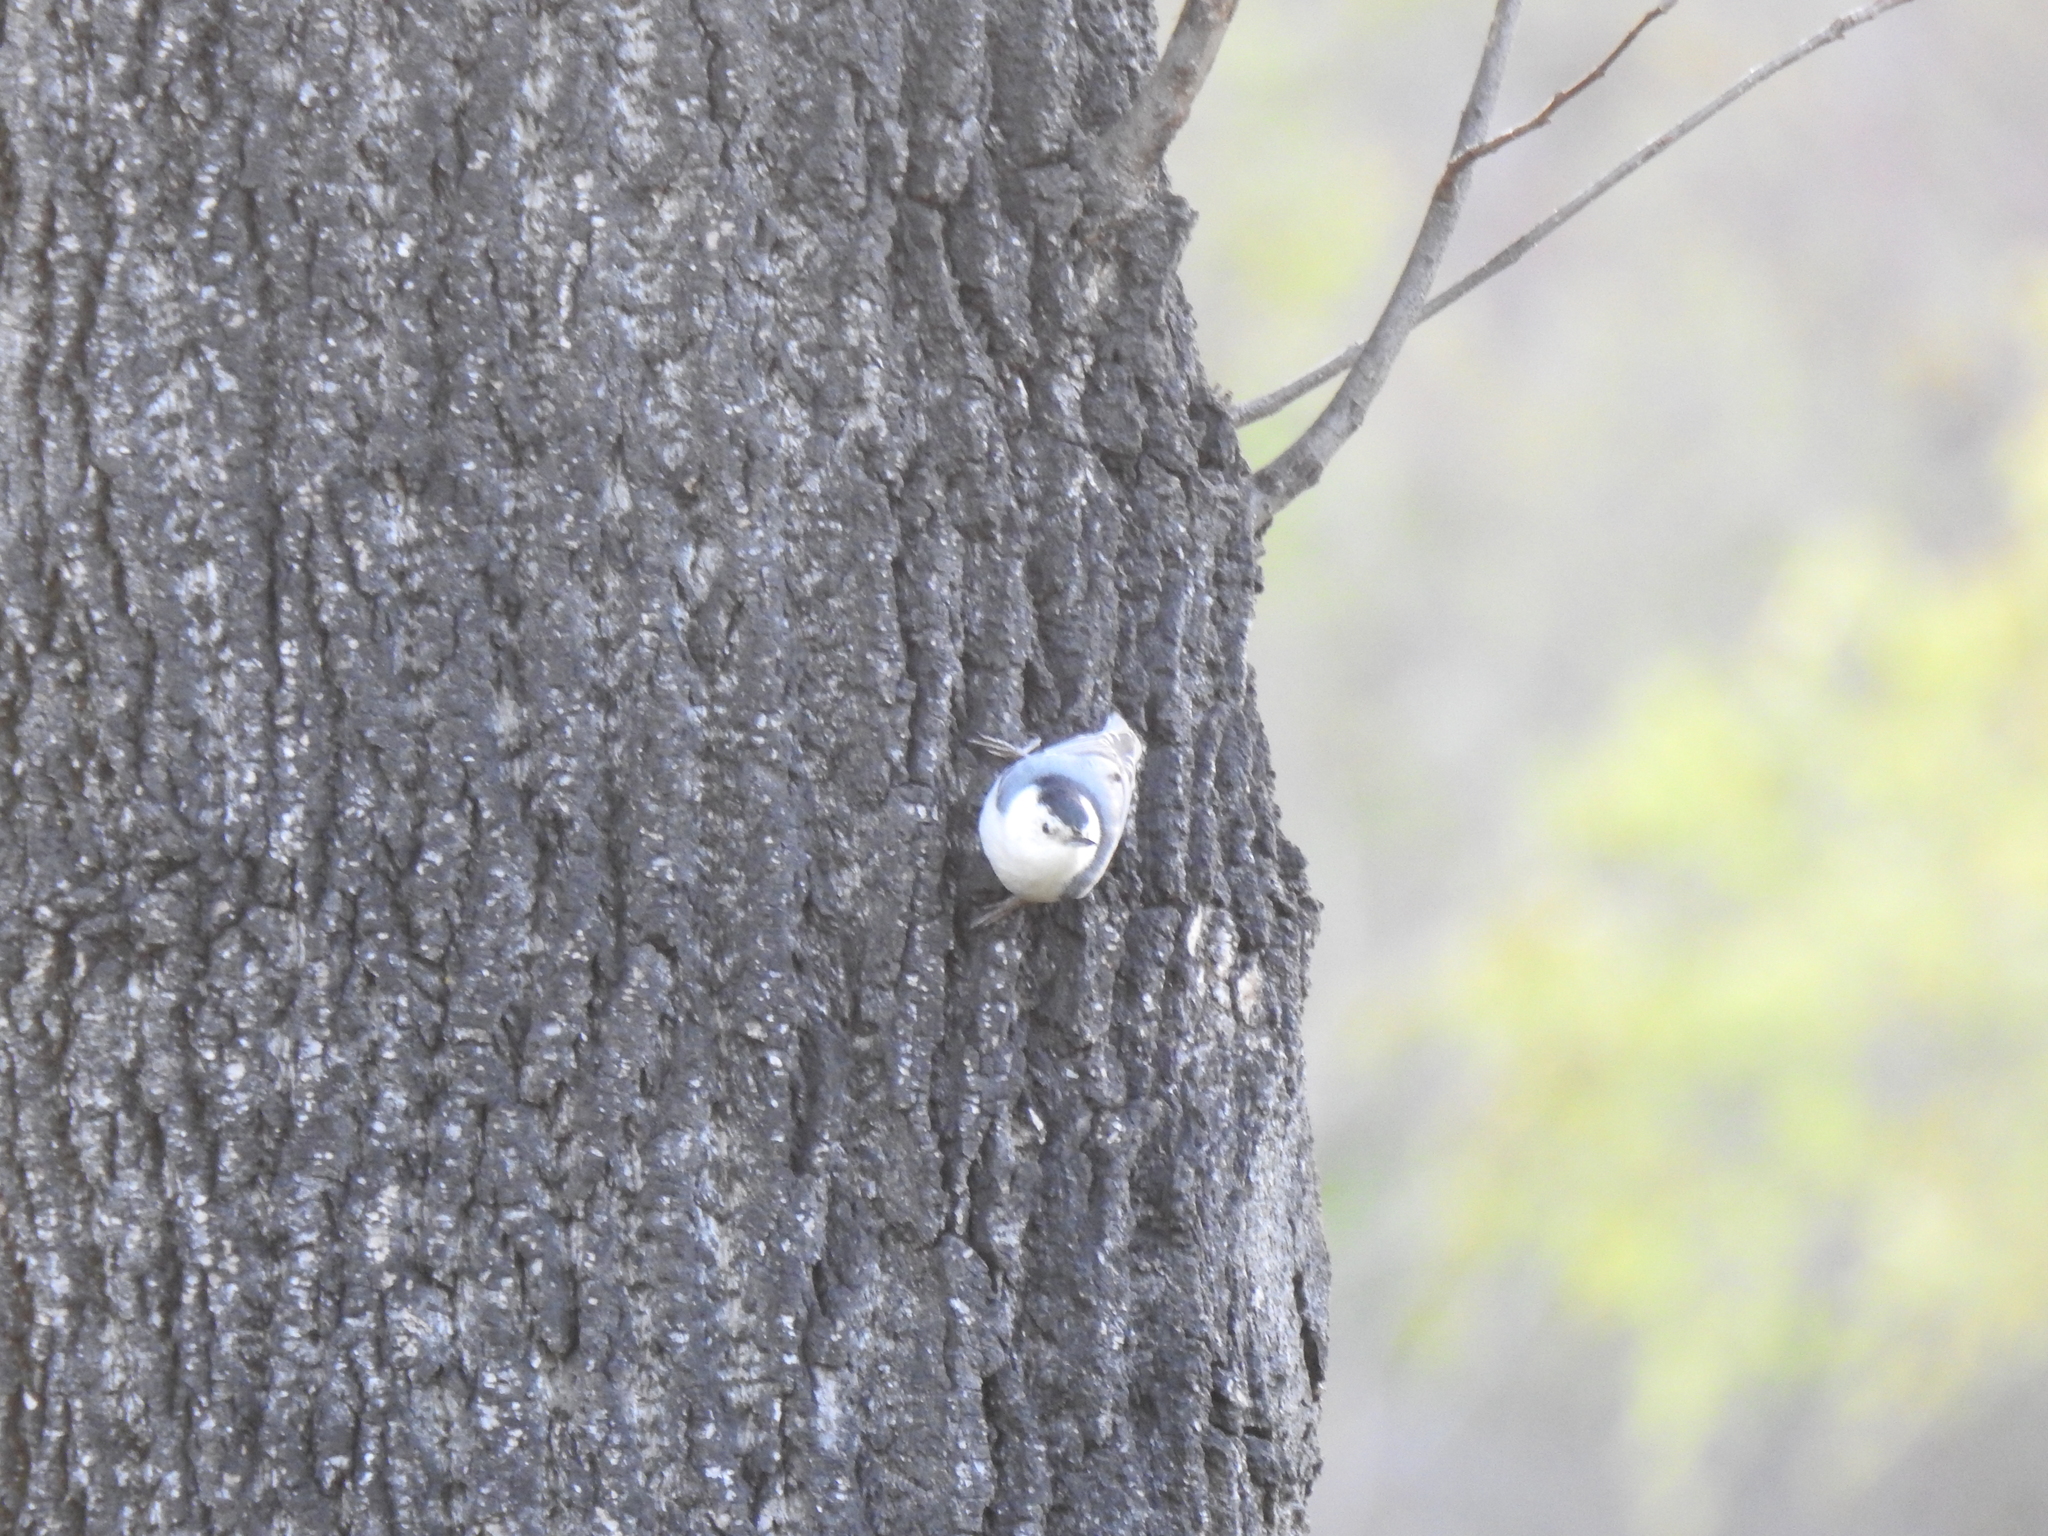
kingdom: Animalia
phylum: Chordata
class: Aves
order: Passeriformes
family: Sittidae
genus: Sitta
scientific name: Sitta carolinensis
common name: White-breasted nuthatch
